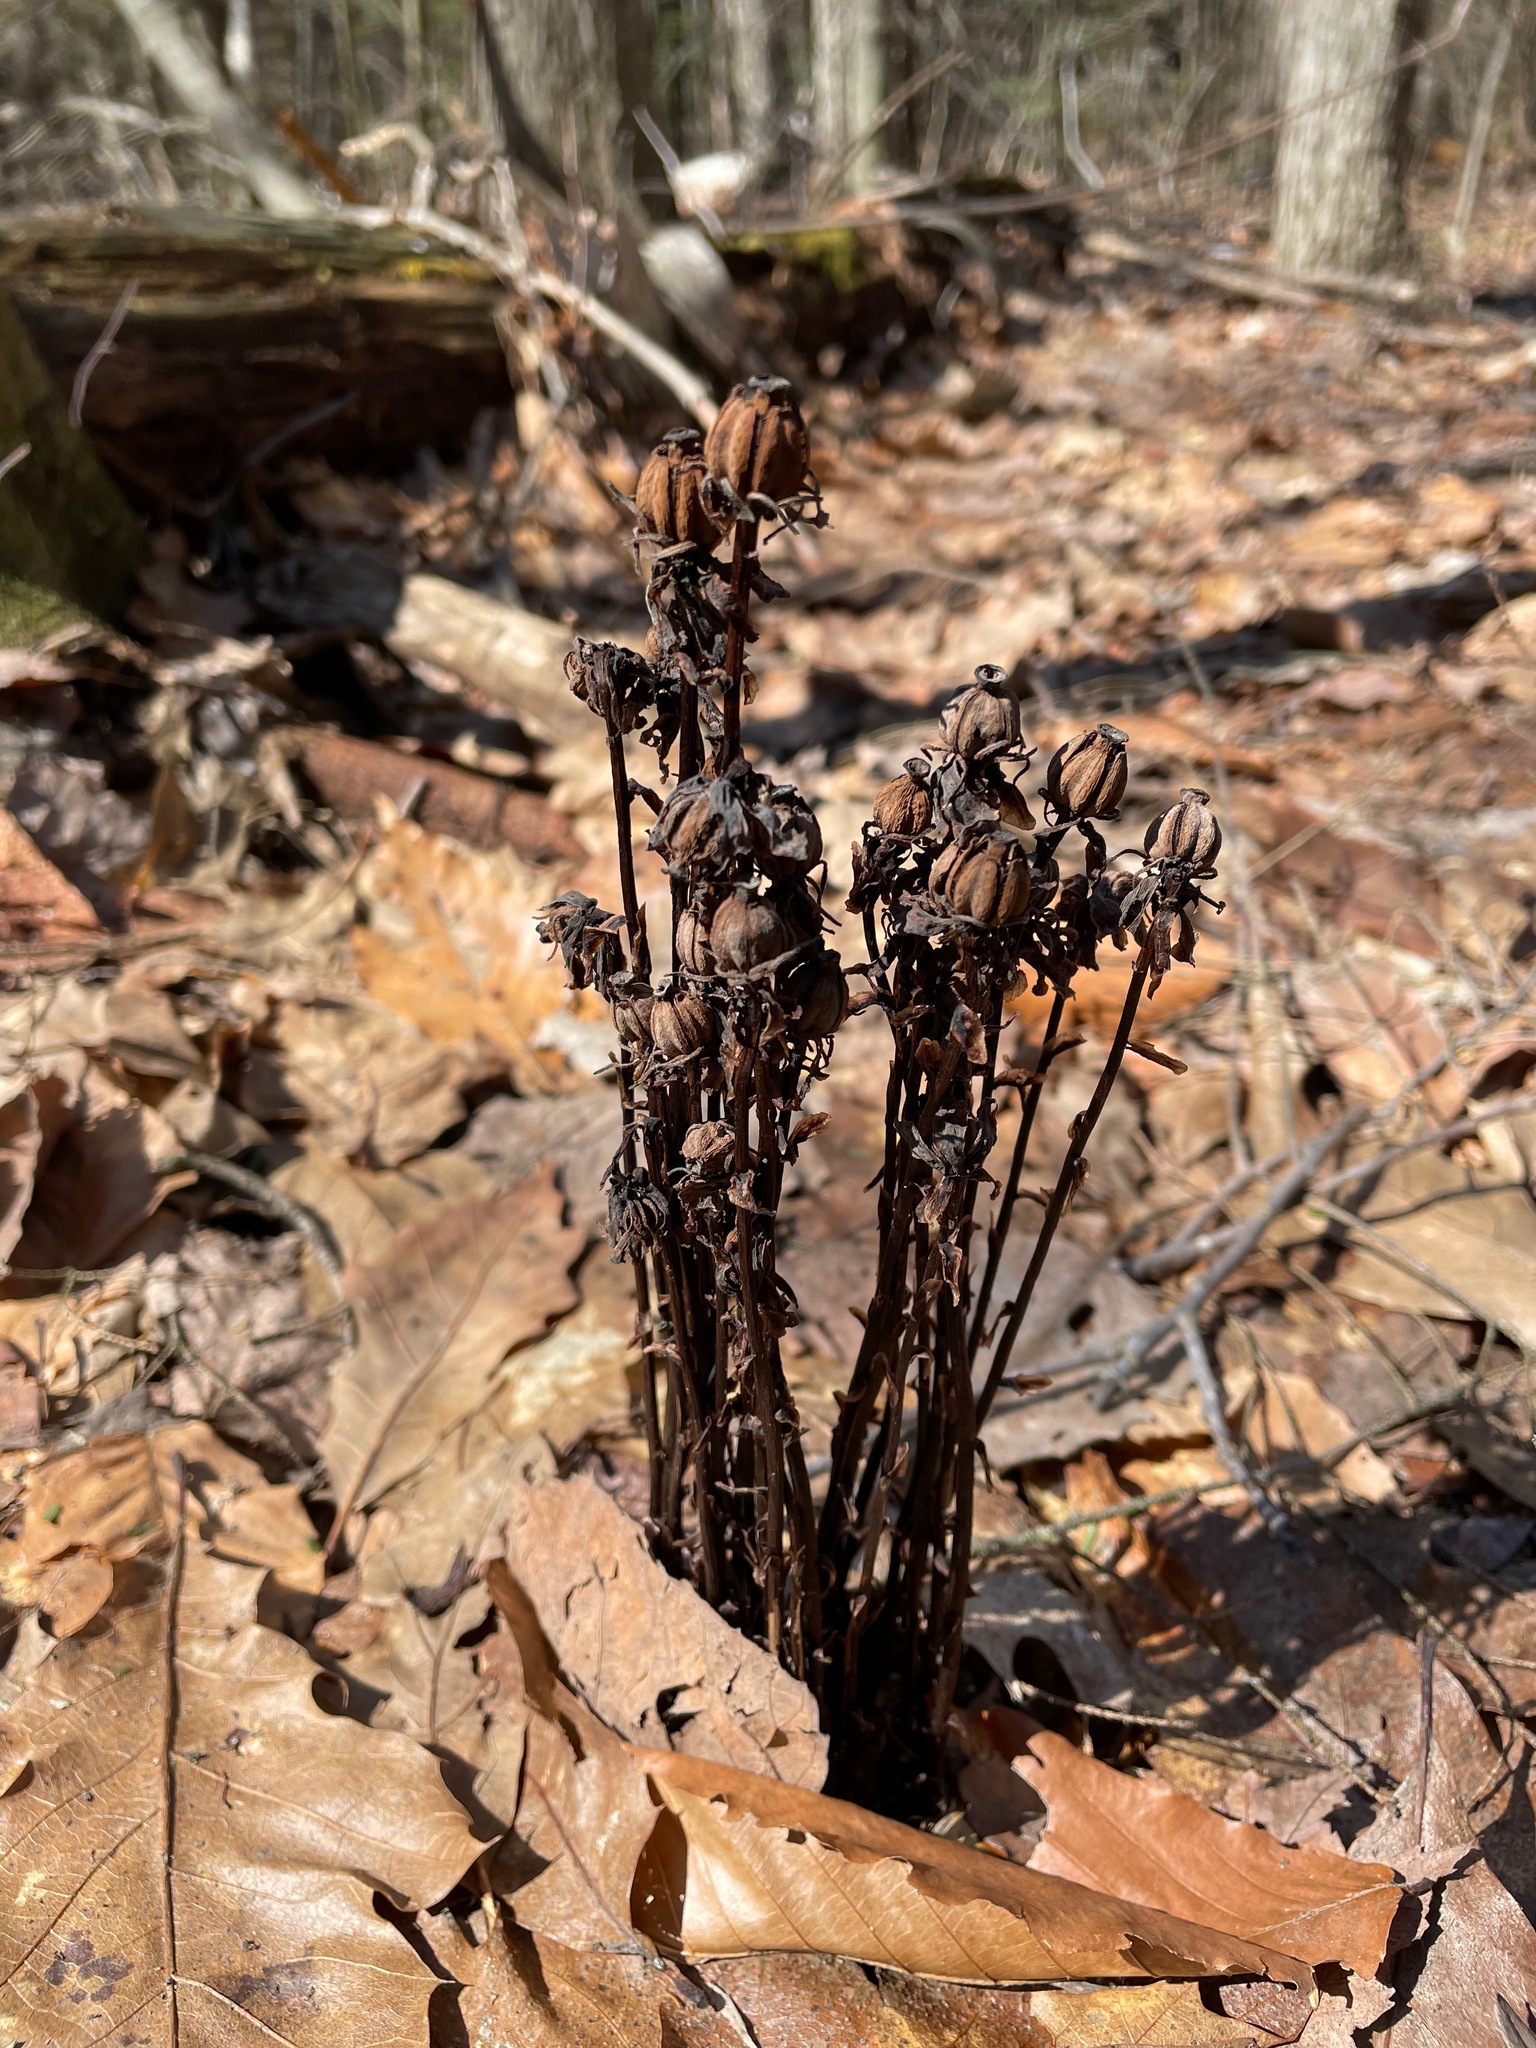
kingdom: Plantae
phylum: Tracheophyta
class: Magnoliopsida
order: Ericales
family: Ericaceae
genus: Monotropa
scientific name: Monotropa uniflora
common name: Convulsion root
